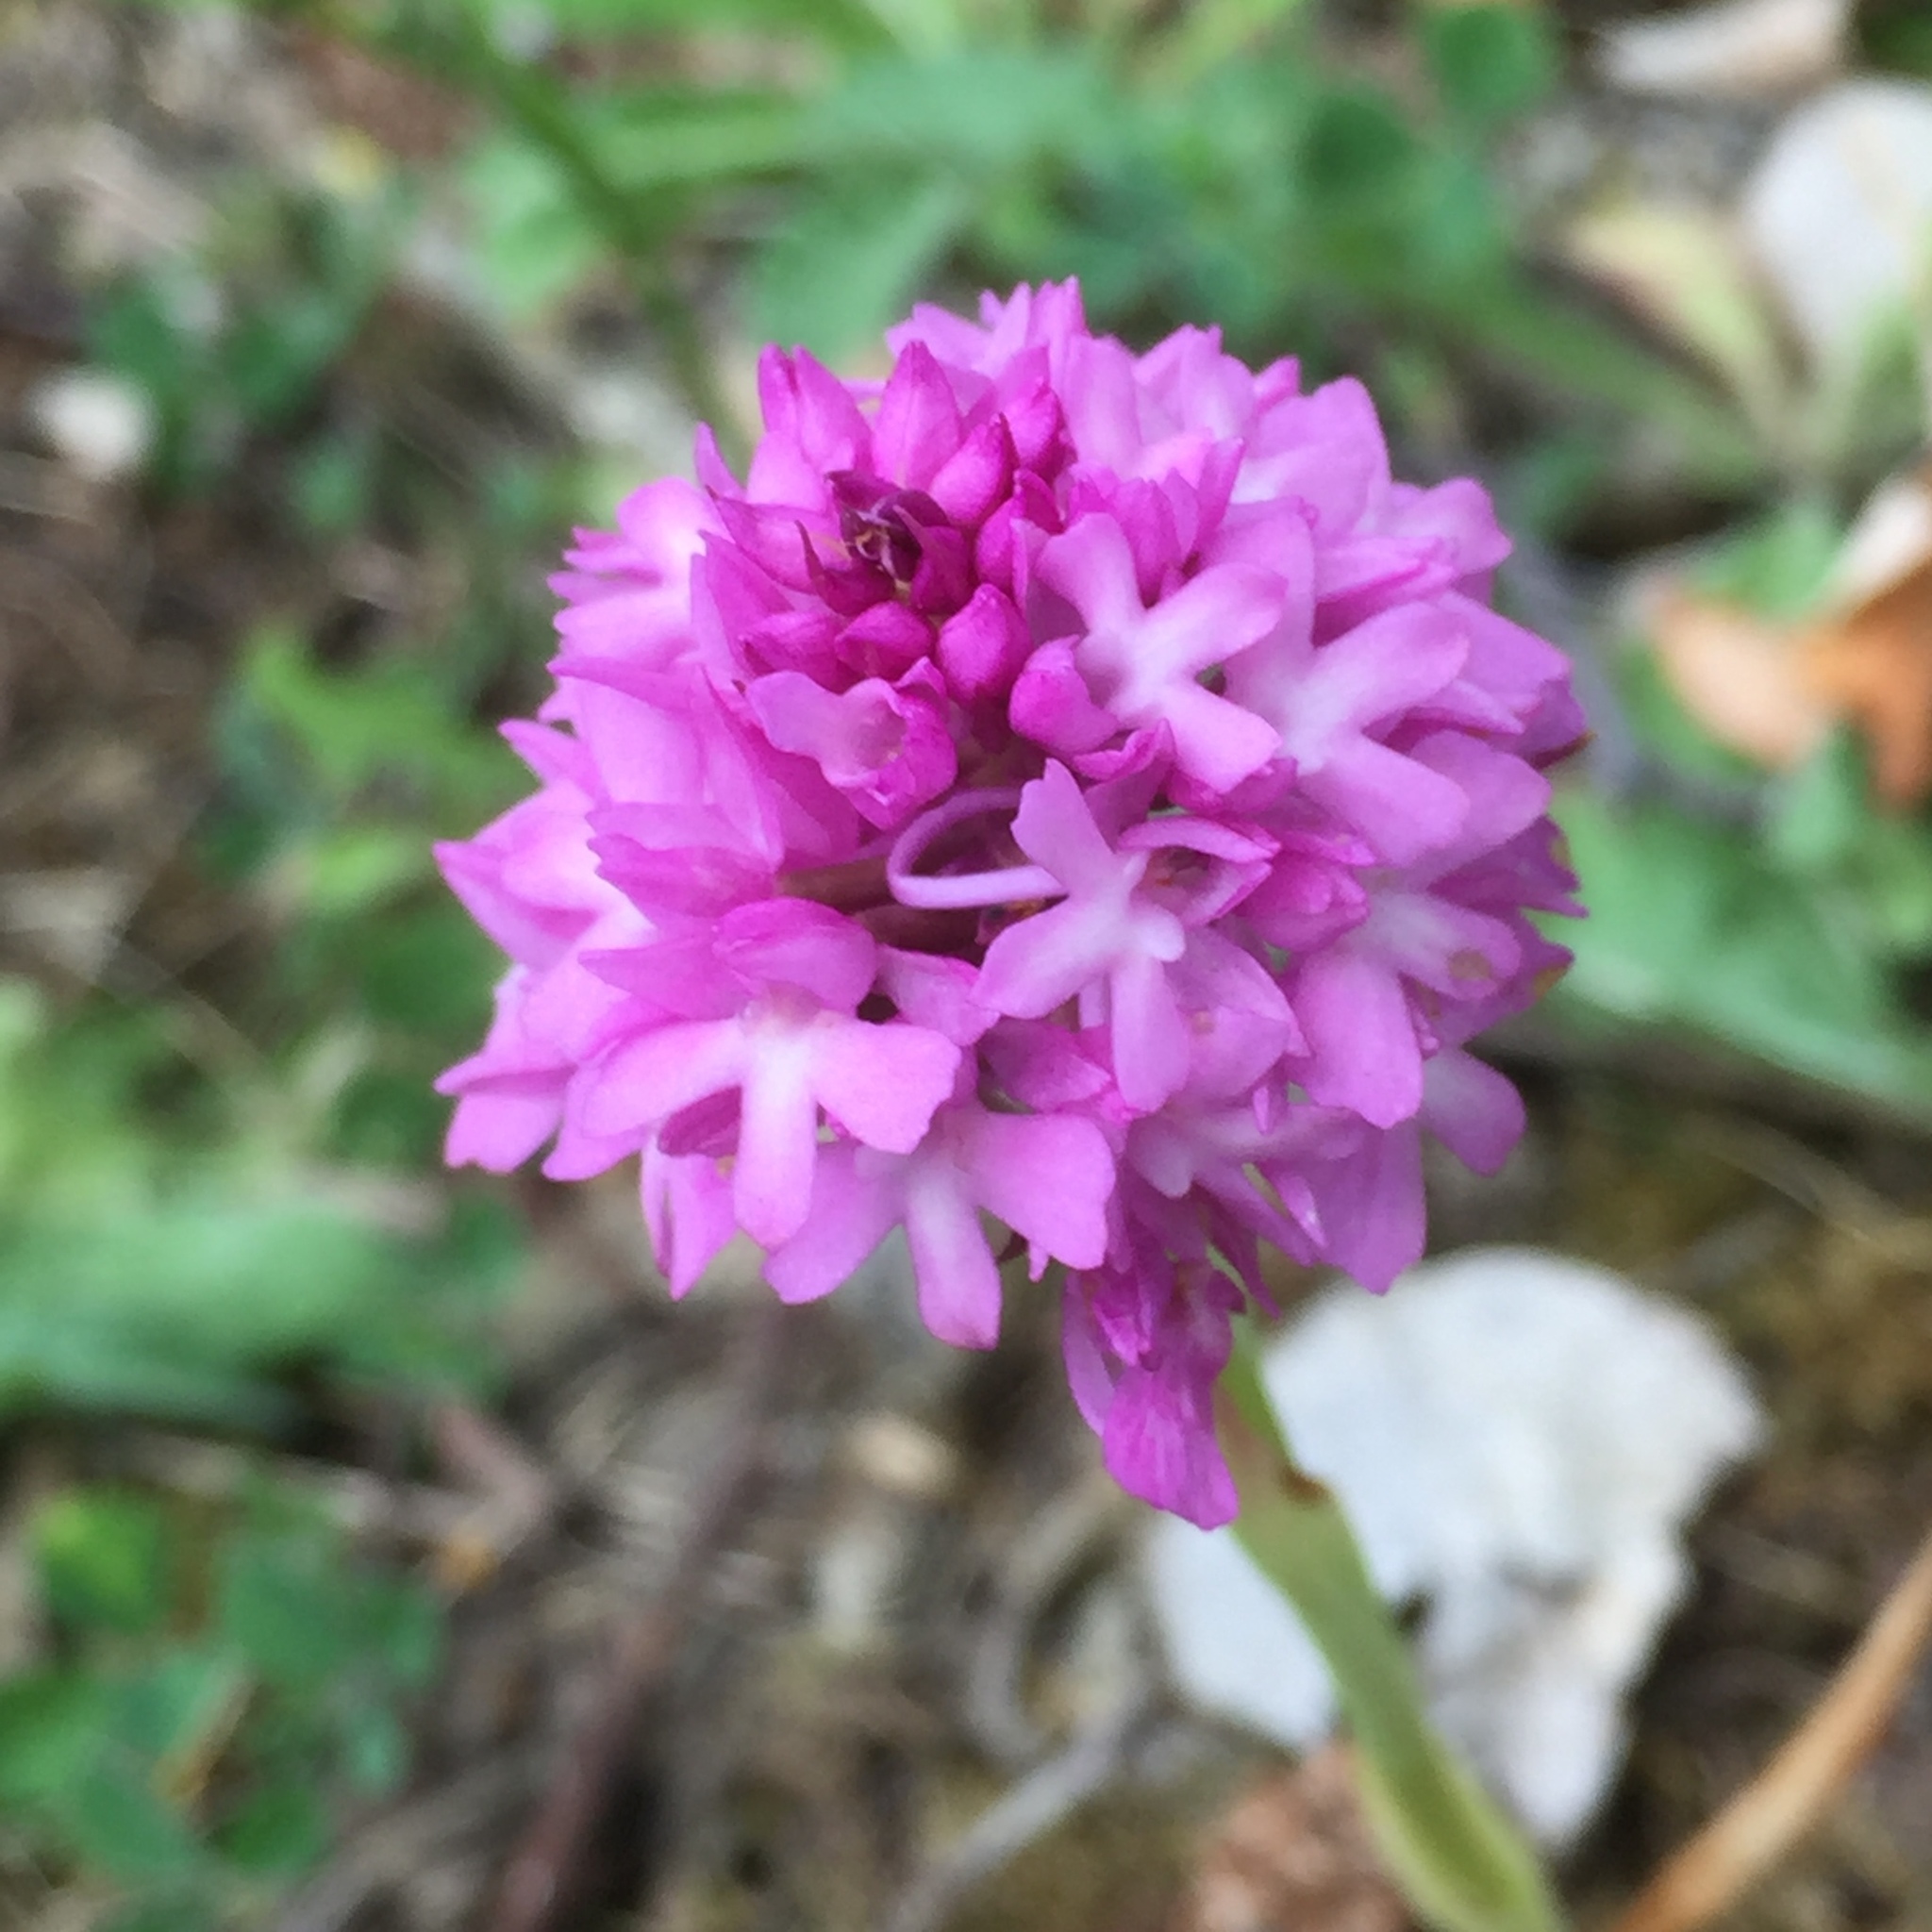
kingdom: Plantae
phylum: Tracheophyta
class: Liliopsida
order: Asparagales
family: Orchidaceae
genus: Anacamptis
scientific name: Anacamptis pyramidalis
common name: Pyramidal orchid
